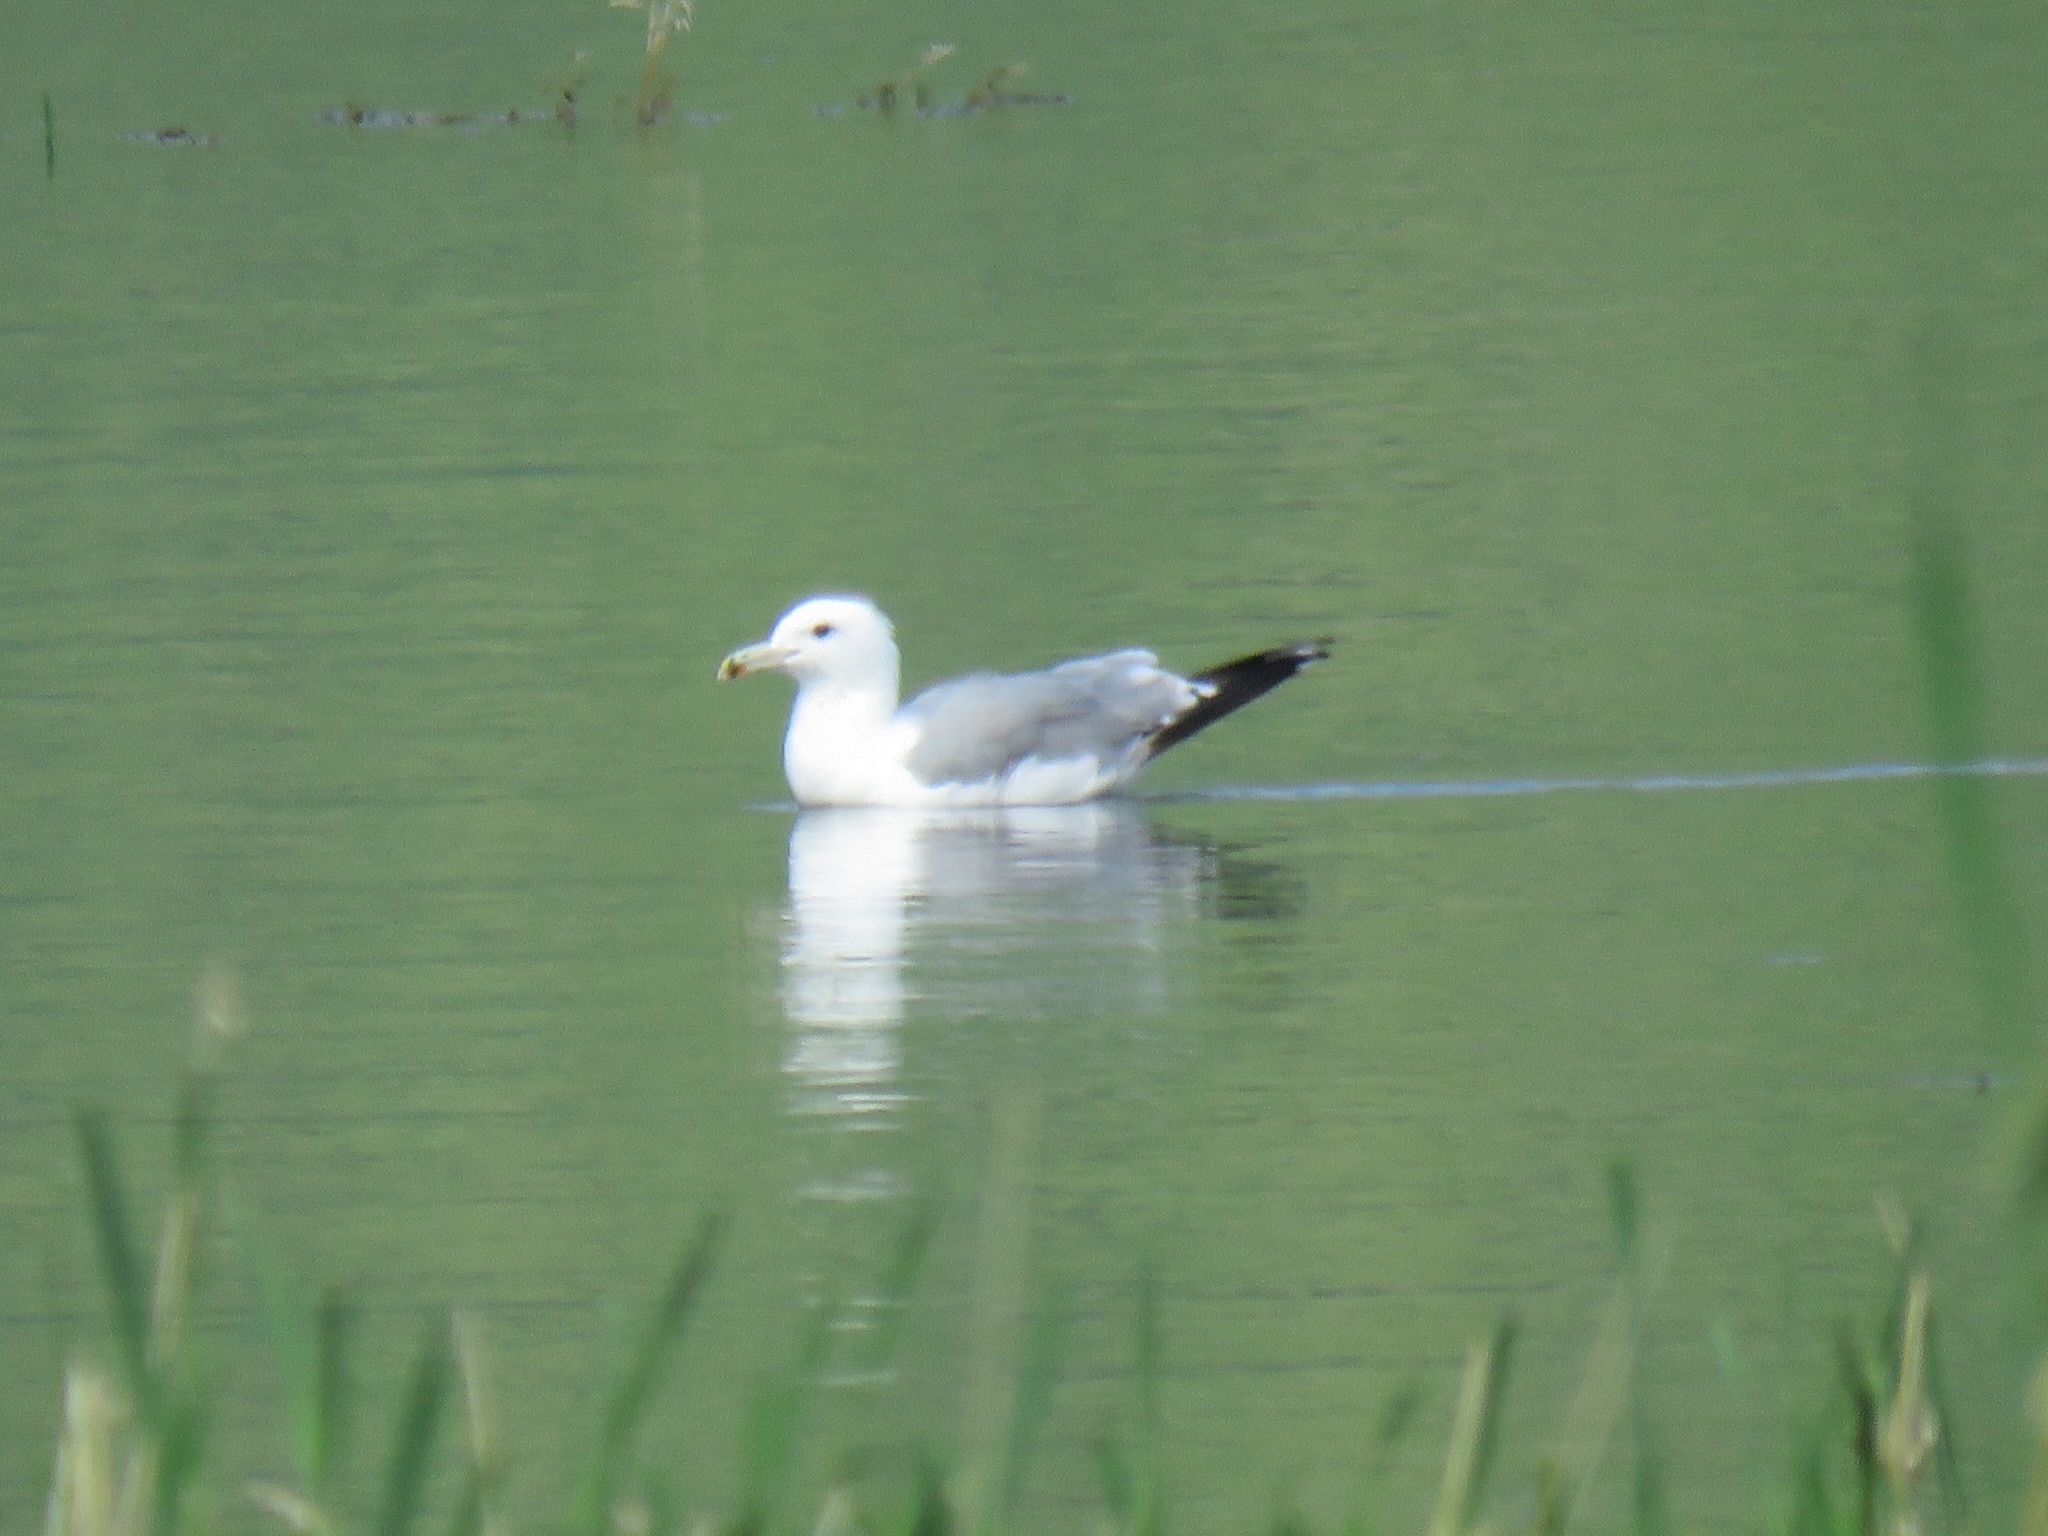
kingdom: Animalia
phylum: Chordata
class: Aves
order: Charadriiformes
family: Laridae
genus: Larus
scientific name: Larus californicus
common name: California gull
